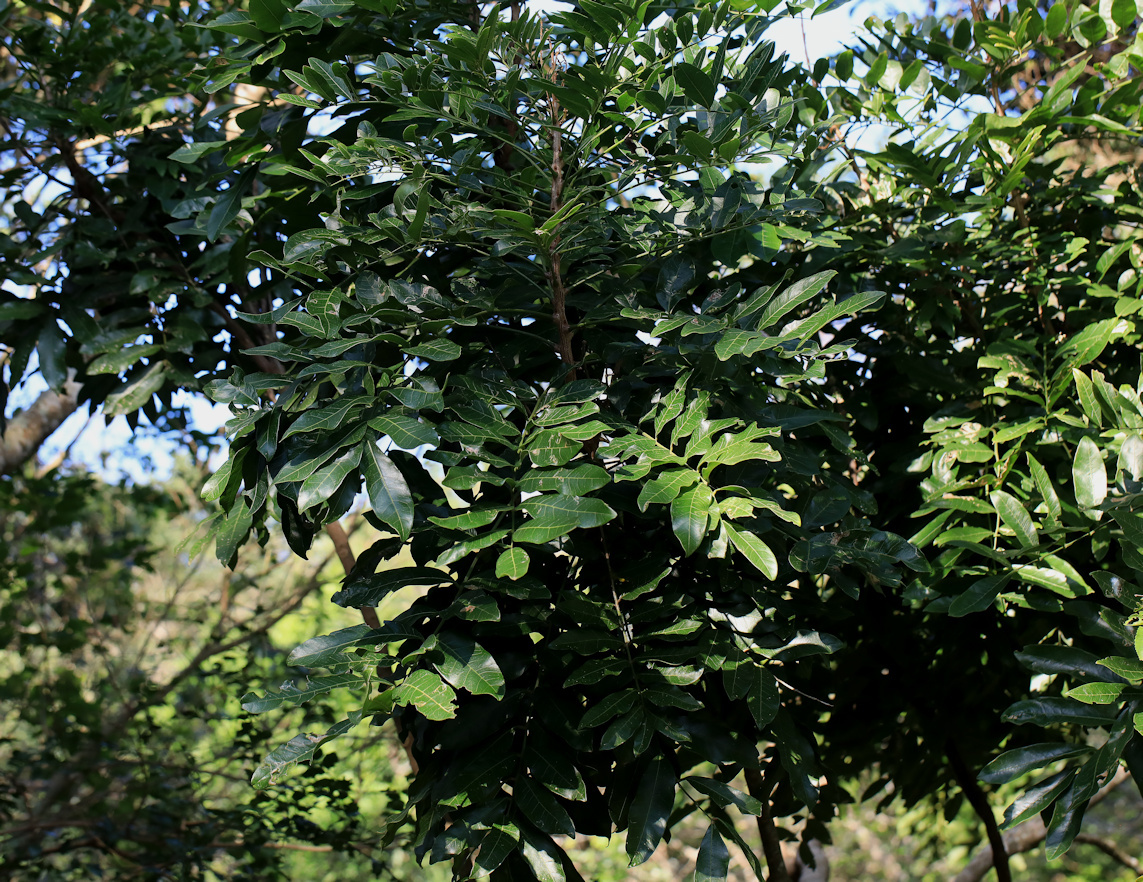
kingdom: Plantae
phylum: Tracheophyta
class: Magnoliopsida
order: Sapindales
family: Sapindaceae
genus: Deinbollia
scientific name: Deinbollia oblongifolia
